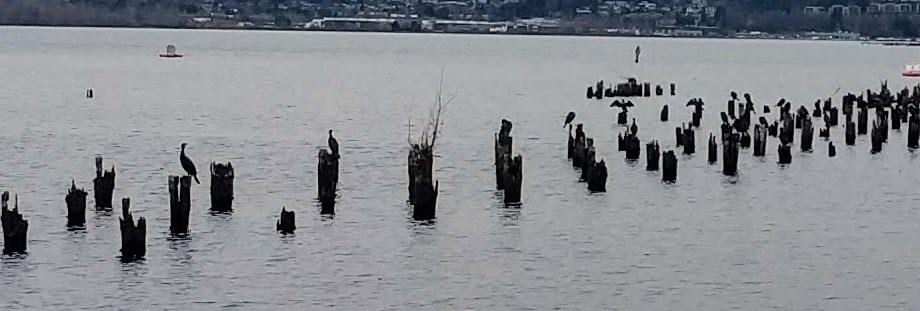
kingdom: Animalia
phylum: Chordata
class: Aves
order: Suliformes
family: Phalacrocoracidae
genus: Phalacrocorax
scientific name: Phalacrocorax auritus
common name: Double-crested cormorant
